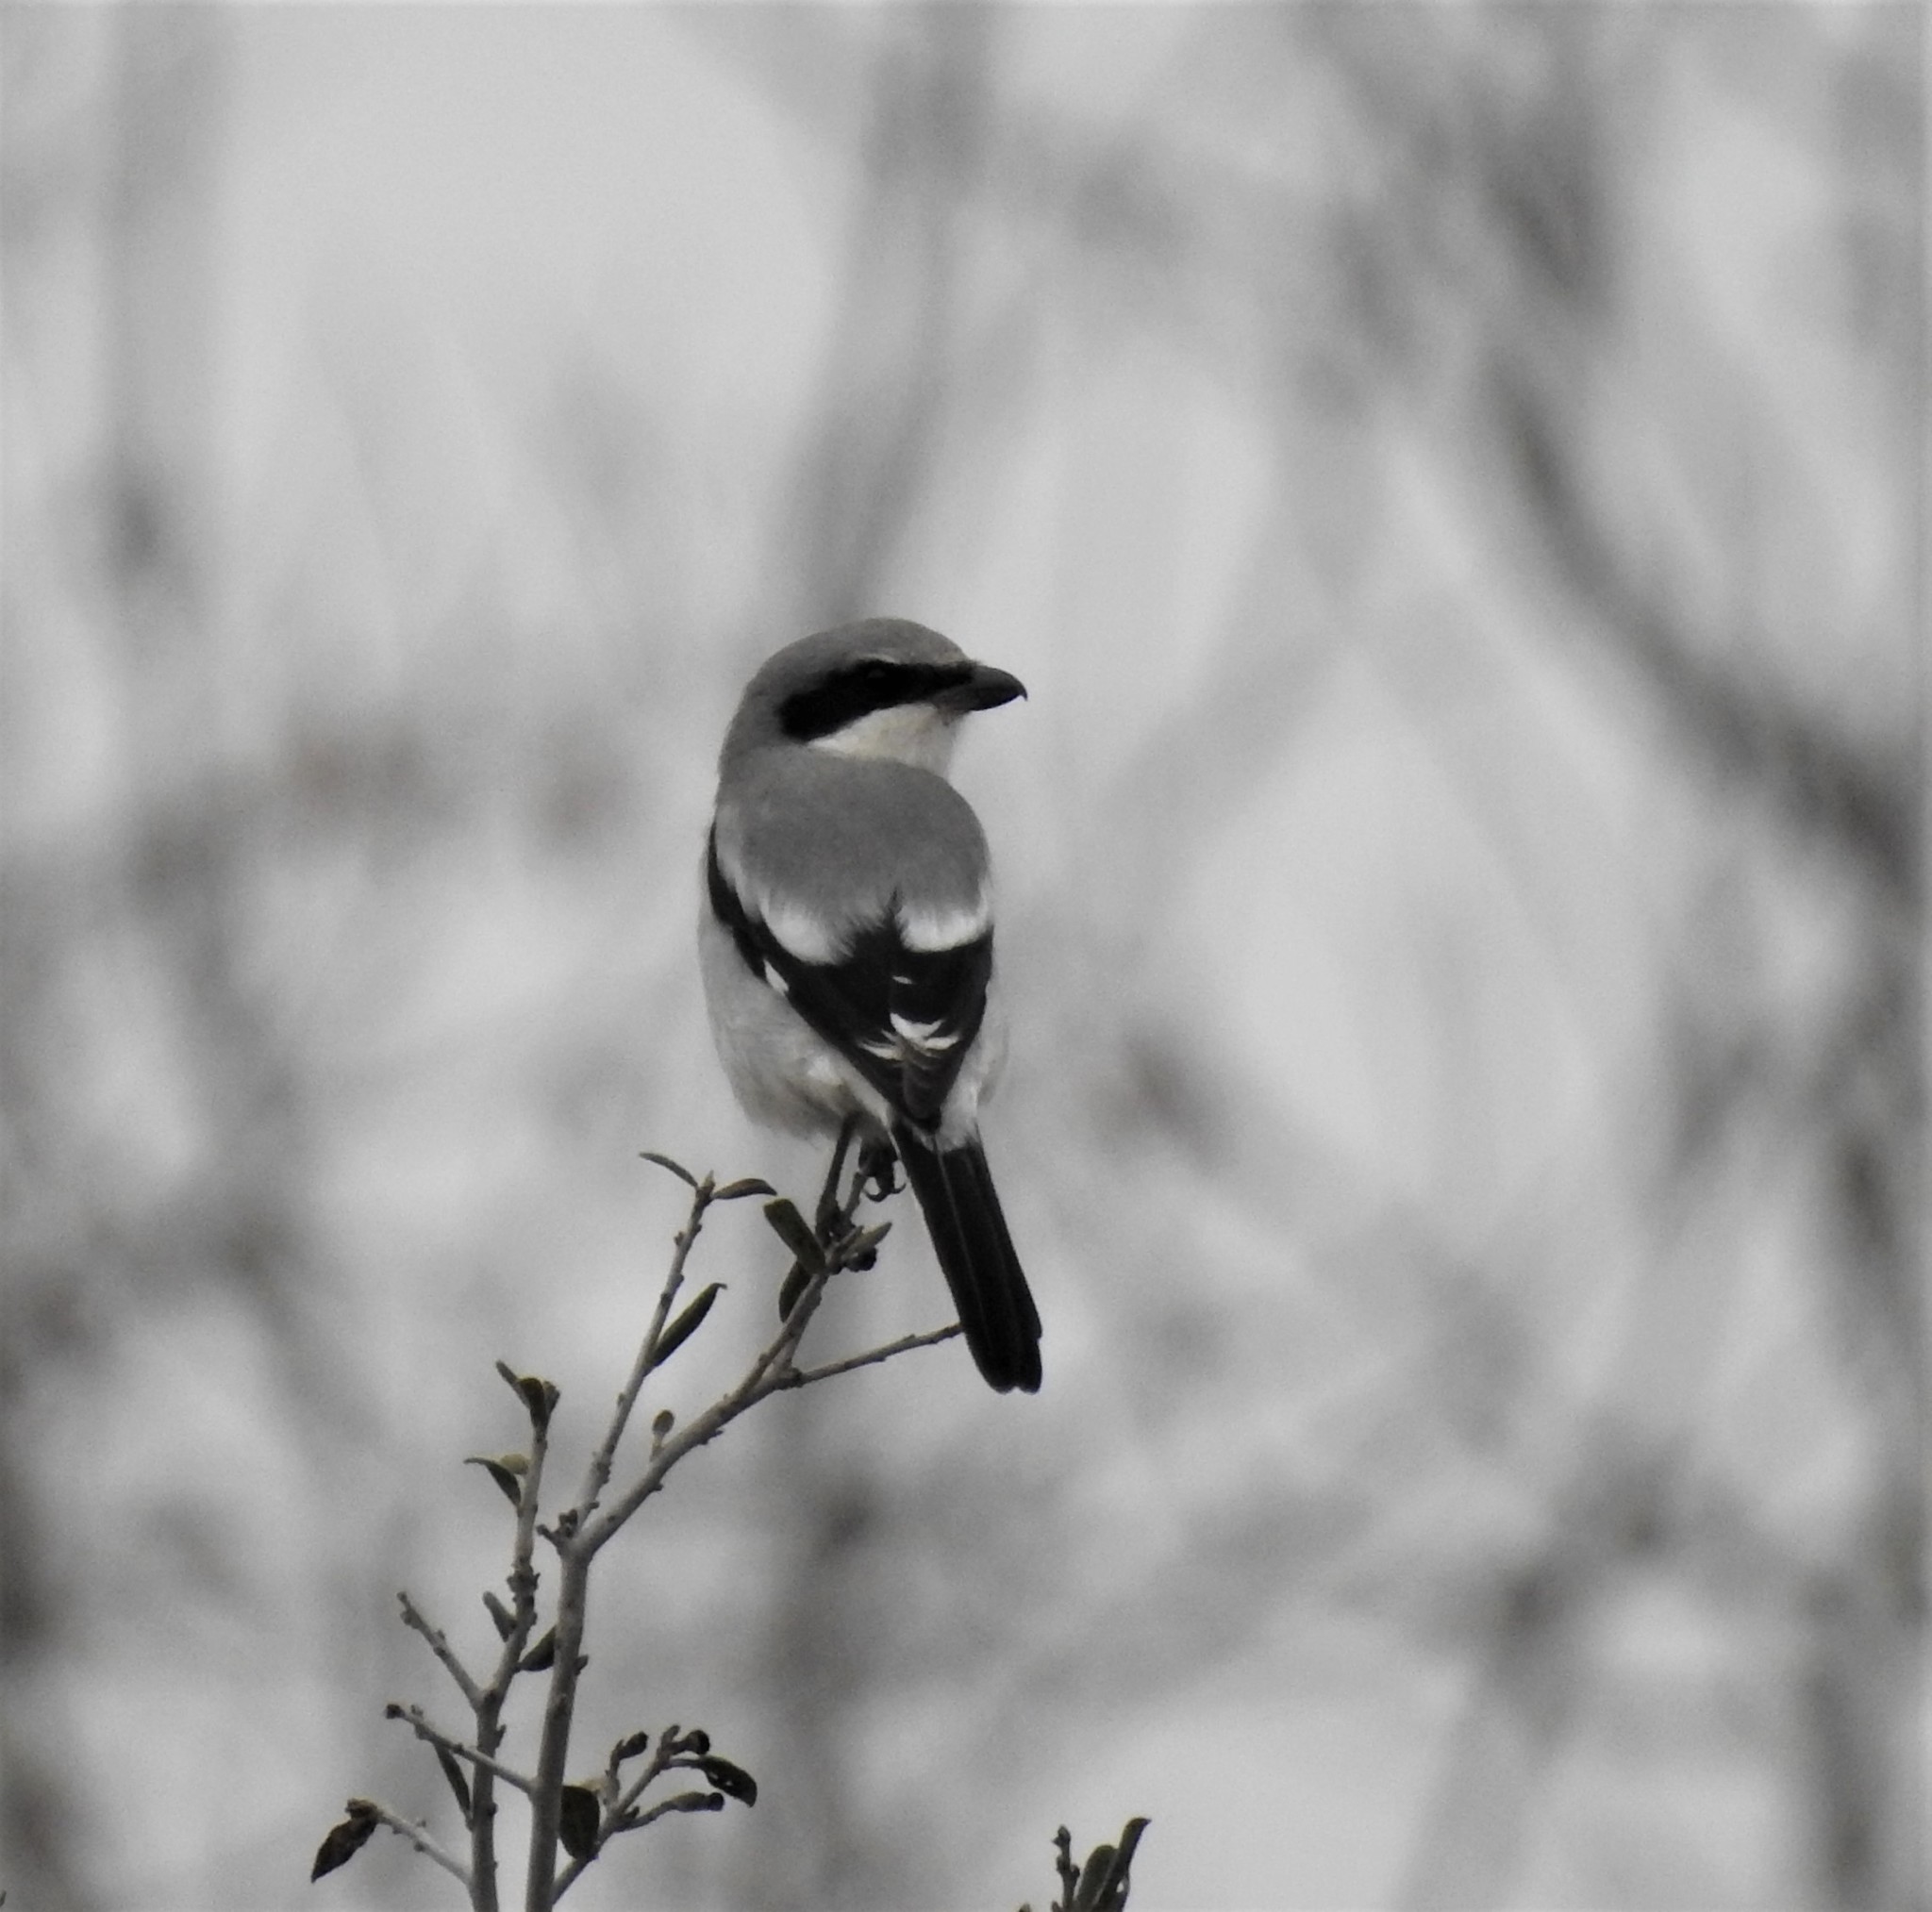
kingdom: Animalia
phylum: Chordata
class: Aves
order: Passeriformes
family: Laniidae
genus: Lanius
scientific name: Lanius ludovicianus
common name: Loggerhead shrike
